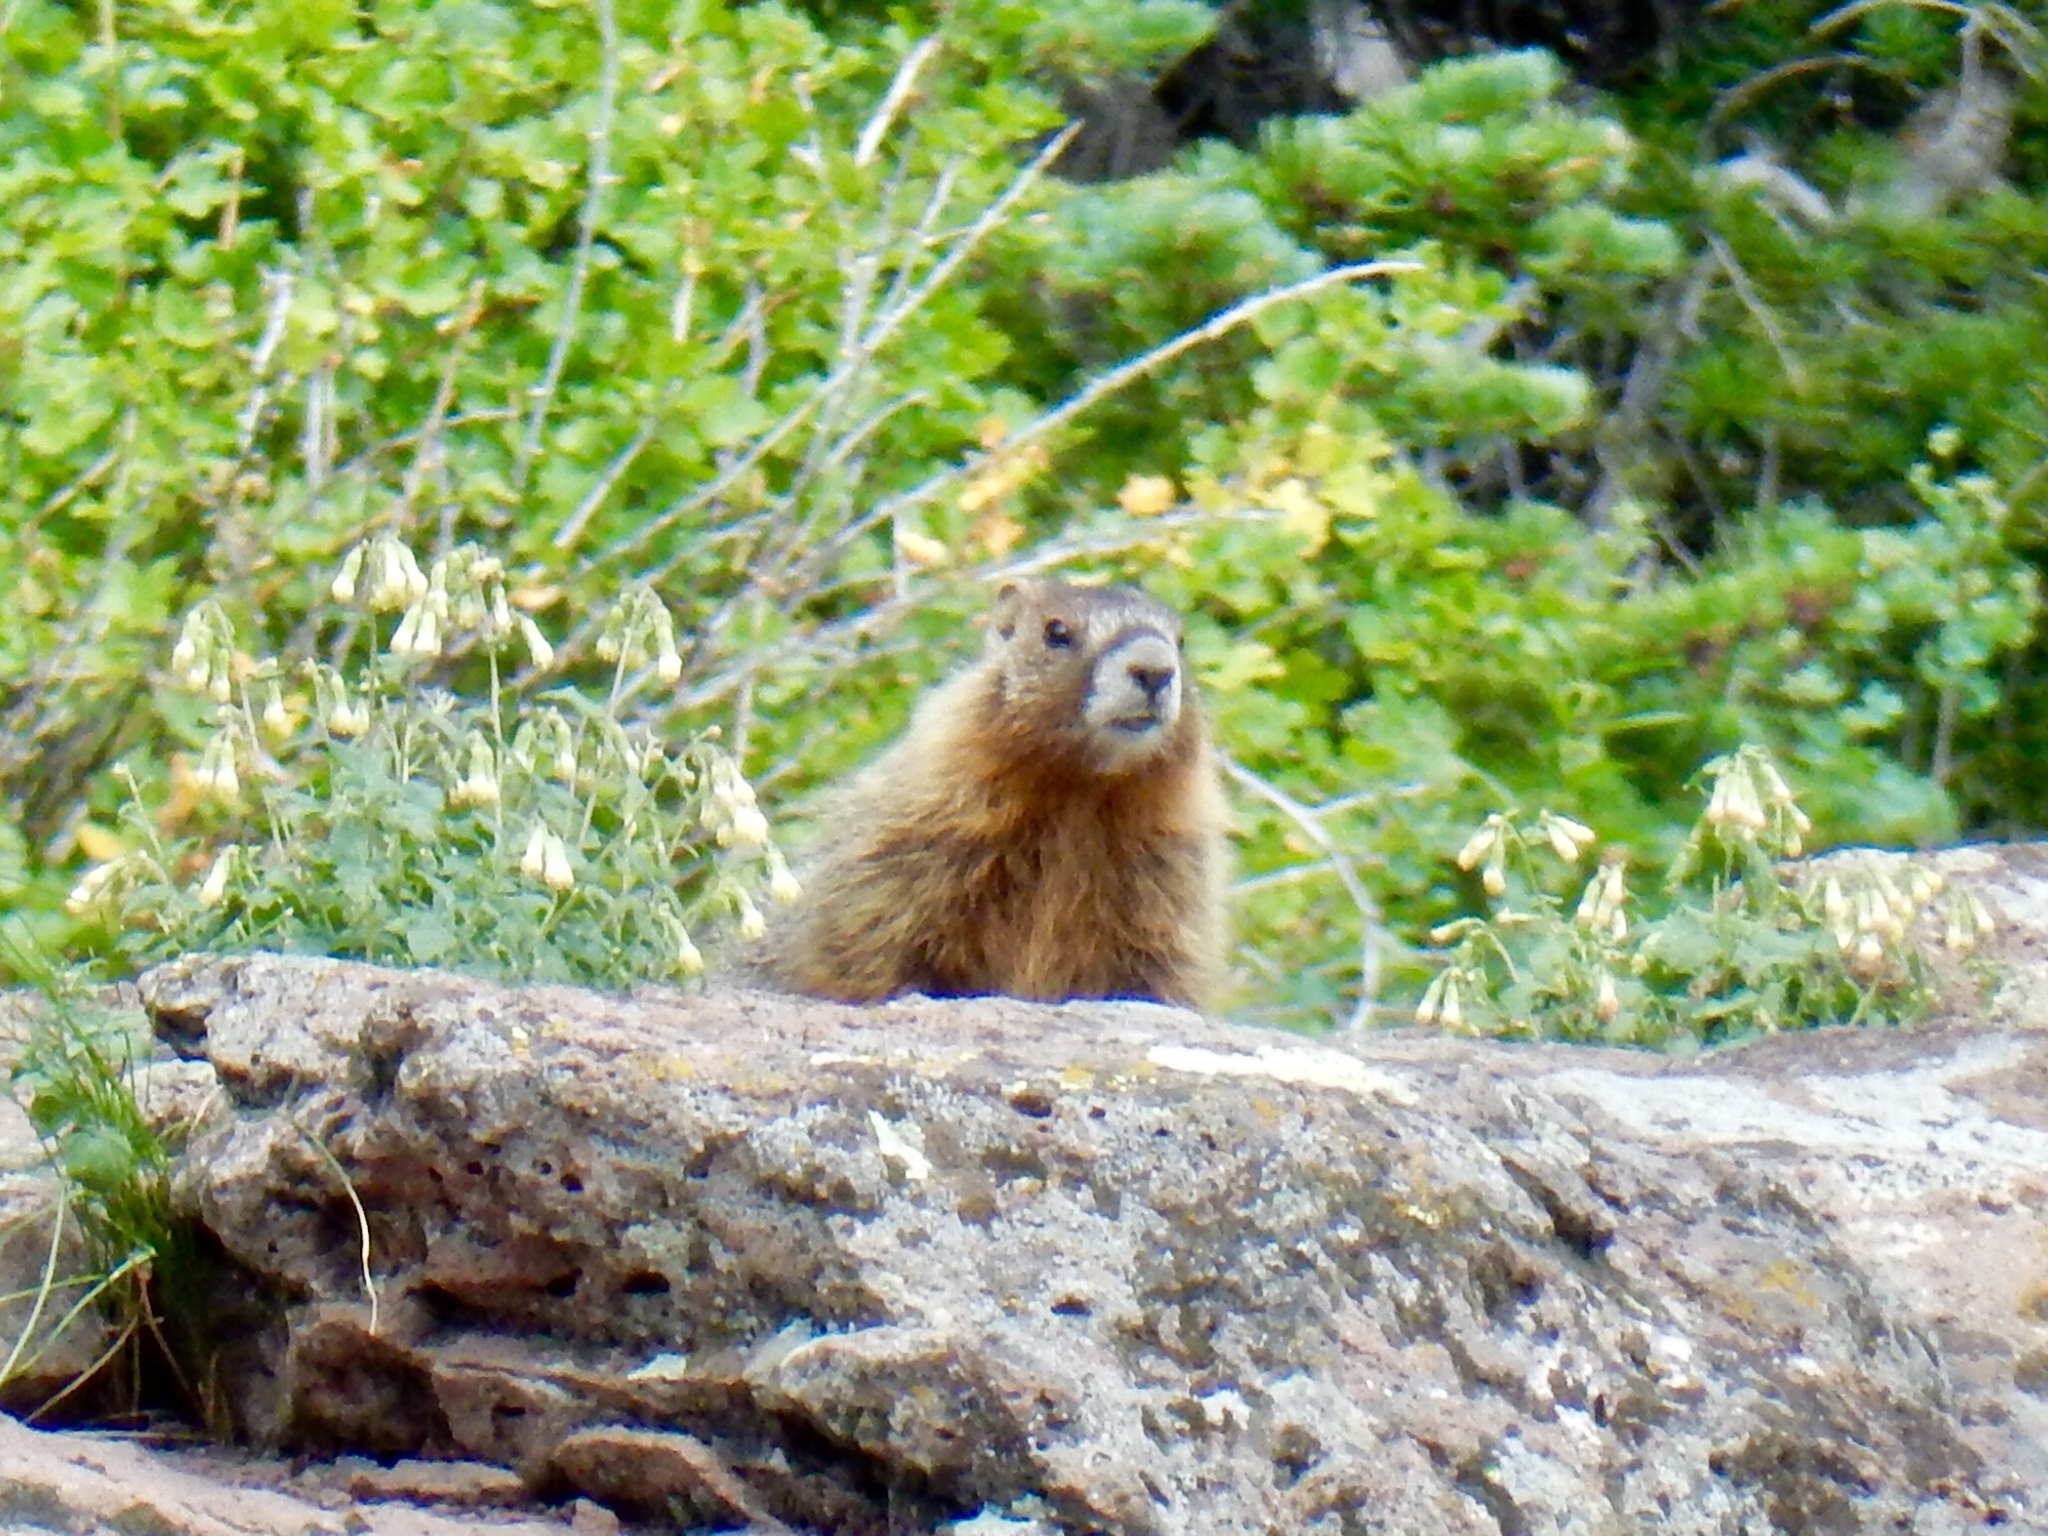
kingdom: Animalia
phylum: Chordata
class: Mammalia
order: Rodentia
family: Sciuridae
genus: Marmota
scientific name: Marmota flaviventris
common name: Yellow-bellied marmot
